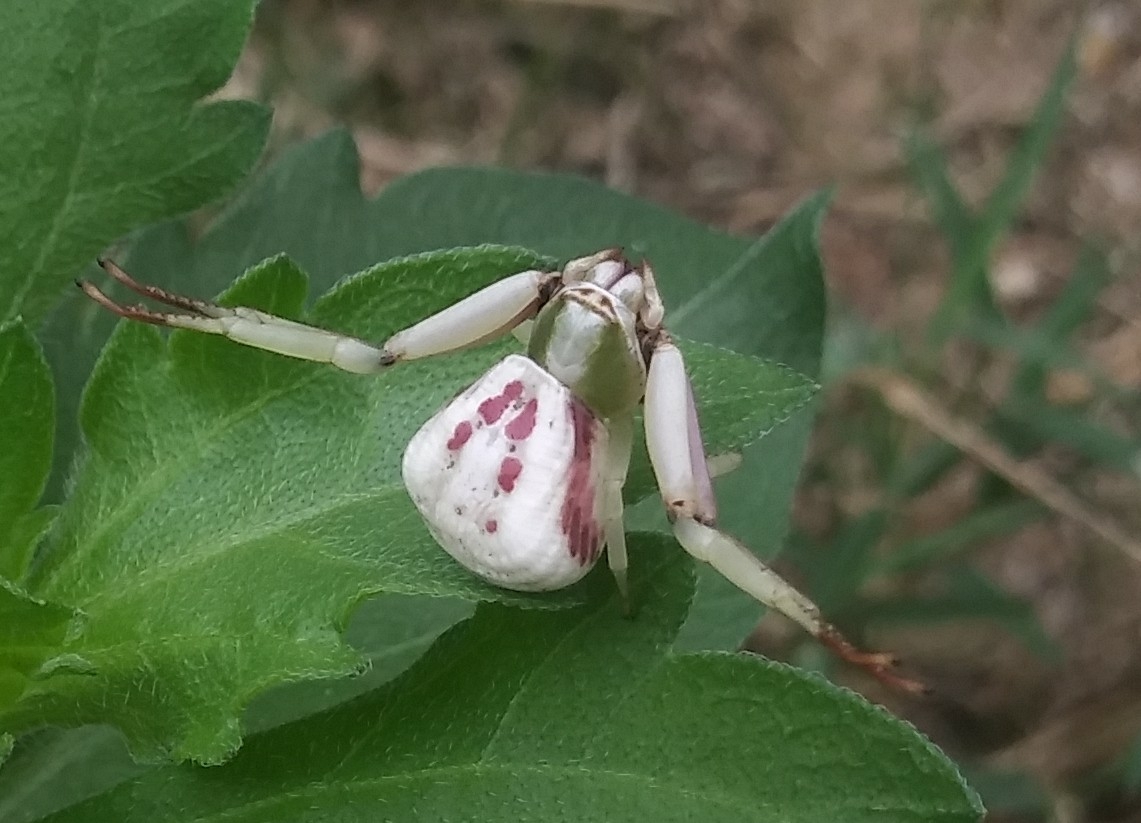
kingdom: Animalia
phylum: Arthropoda
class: Arachnida
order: Araneae
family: Thomisidae
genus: Misumenoides
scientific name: Misumenoides formosipes
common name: White-banded crab spider
